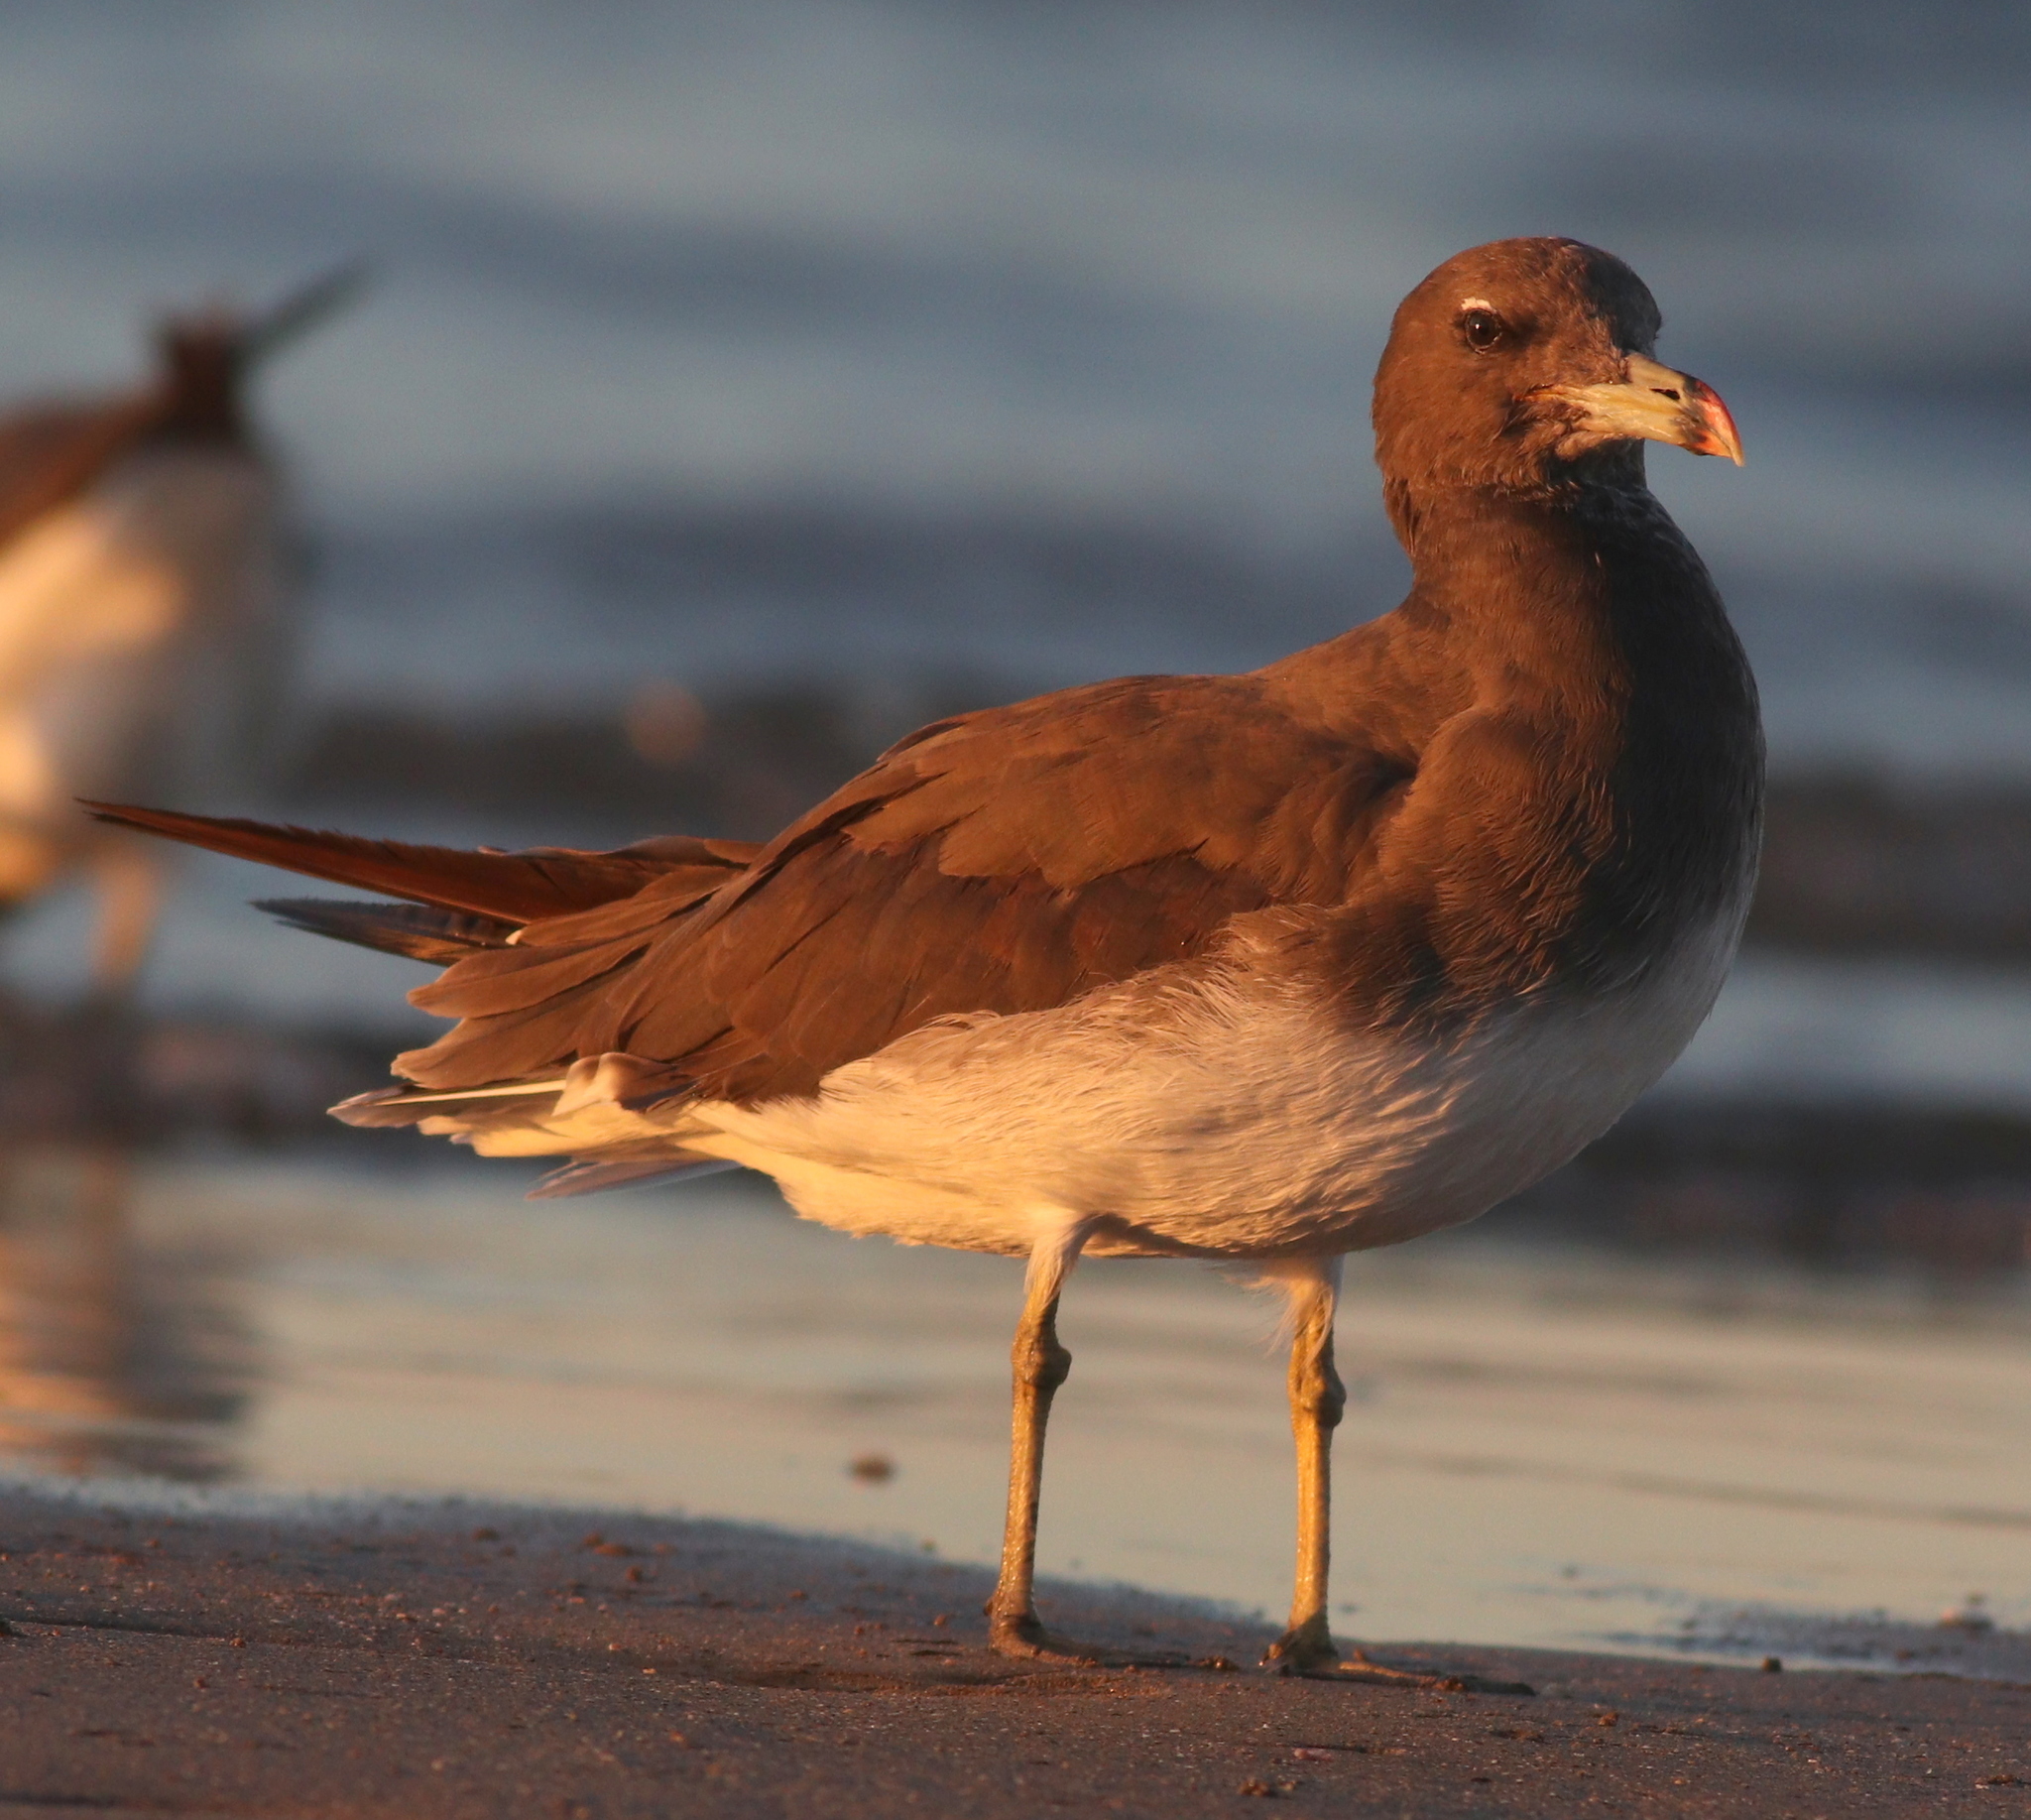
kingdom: Animalia
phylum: Chordata
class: Aves
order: Charadriiformes
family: Laridae
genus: Ichthyaetus
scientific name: Ichthyaetus hemprichii
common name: Sooty gull
